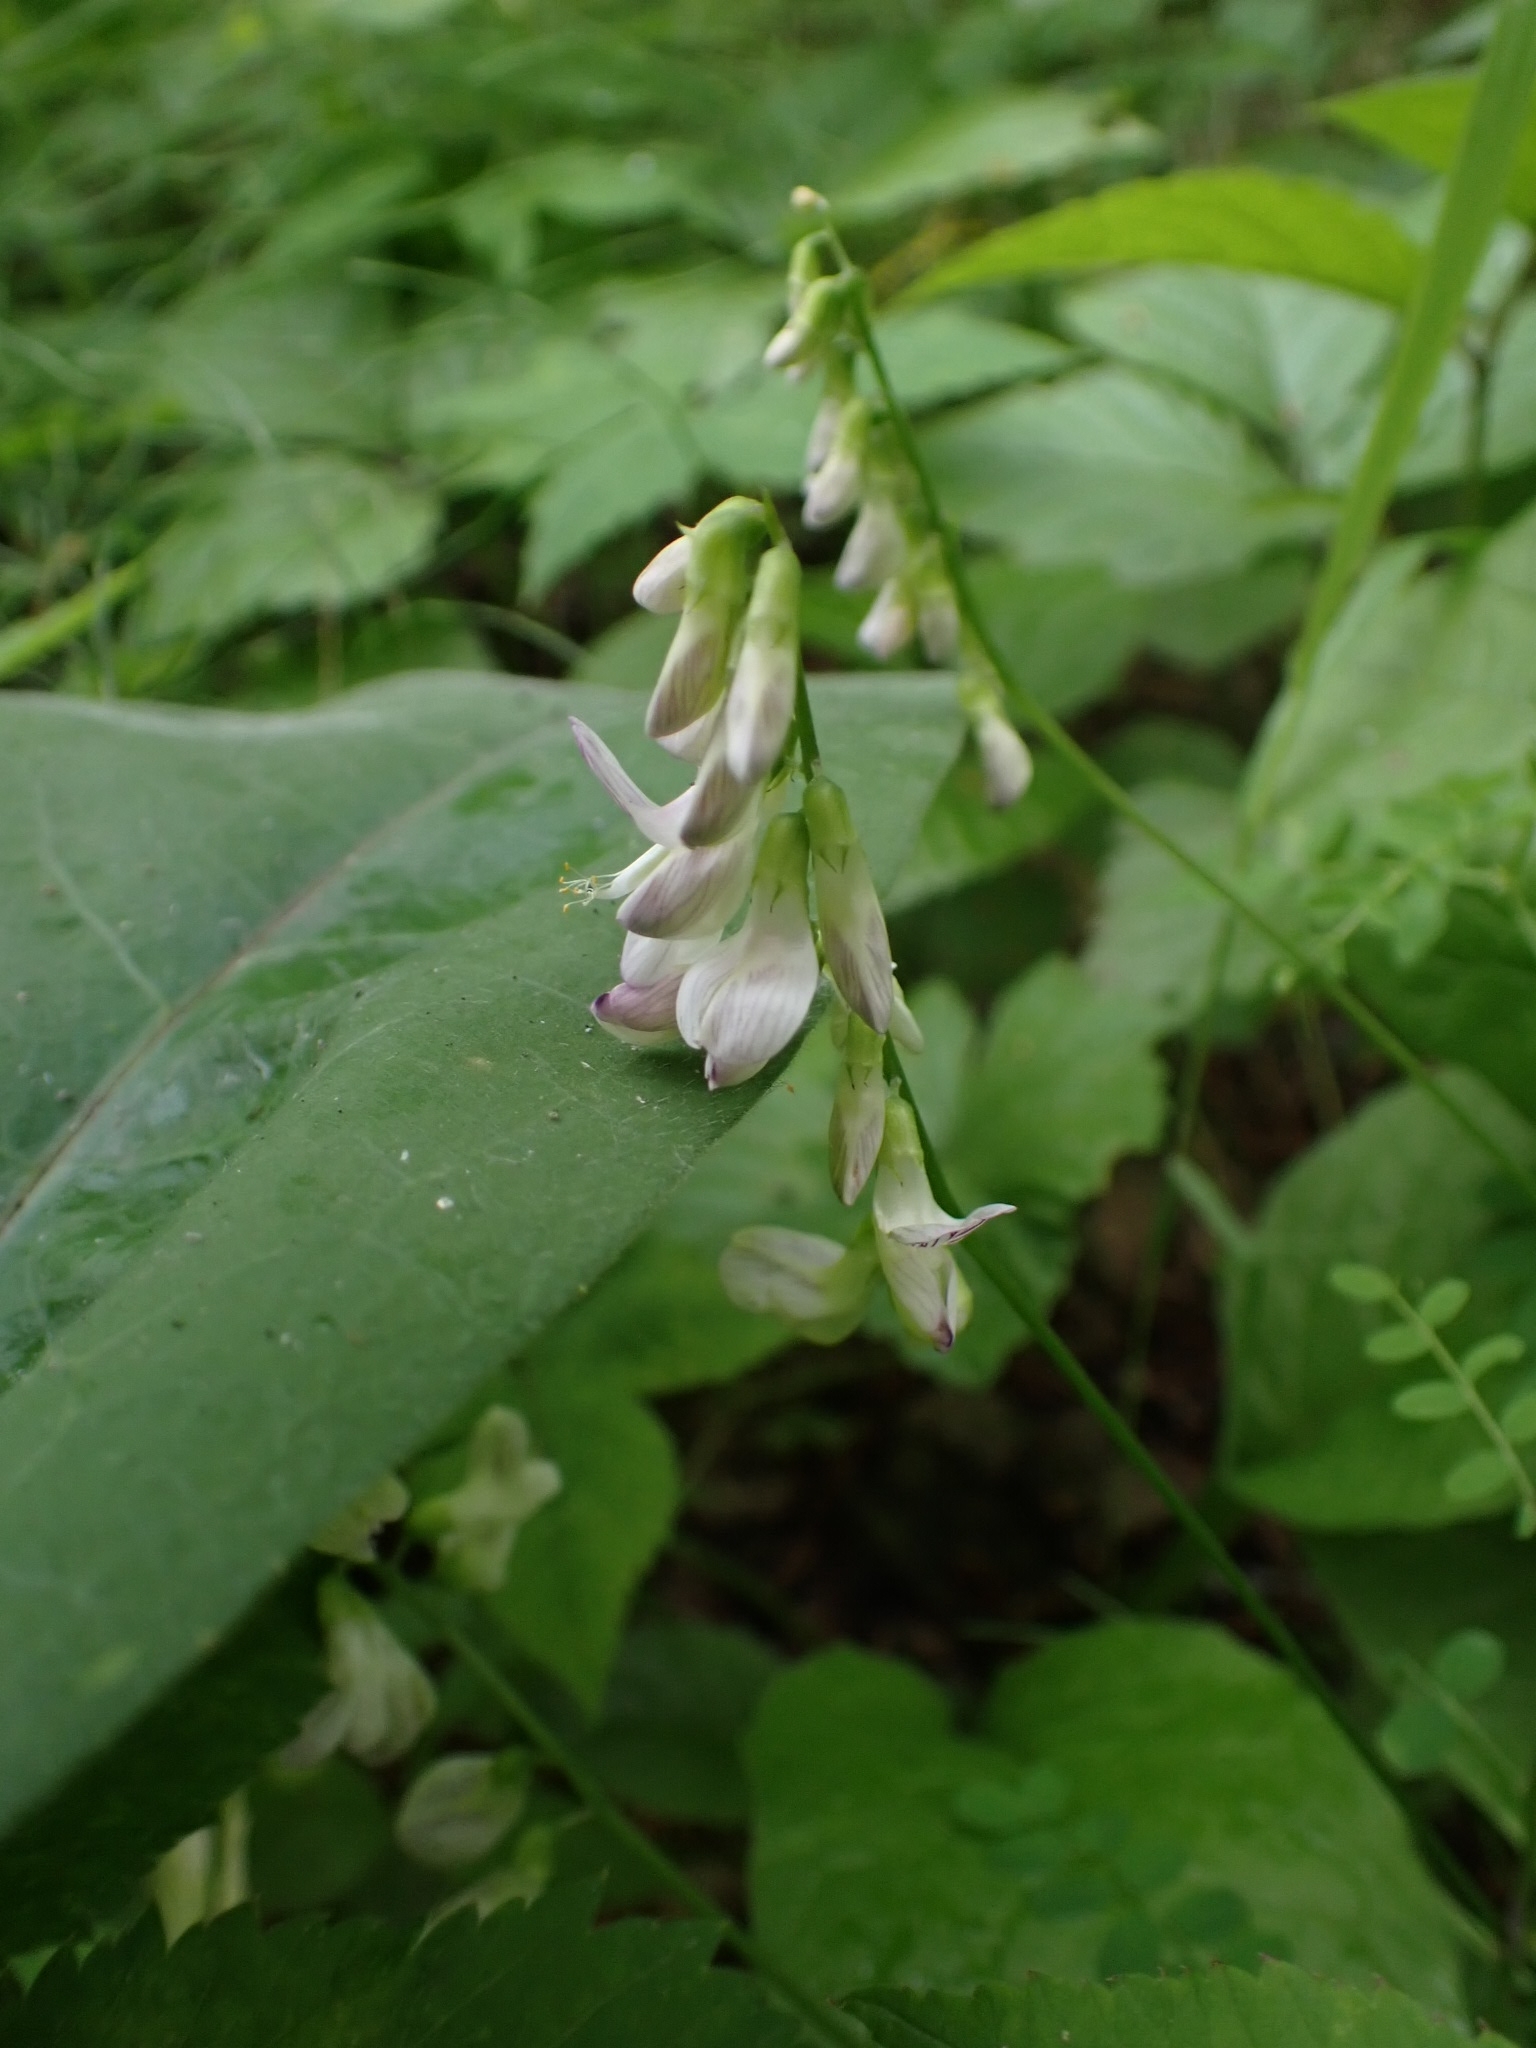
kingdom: Plantae
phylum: Tracheophyta
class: Magnoliopsida
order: Fabales
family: Fabaceae
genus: Vicia
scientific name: Vicia sylvatica
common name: Wood vetch
